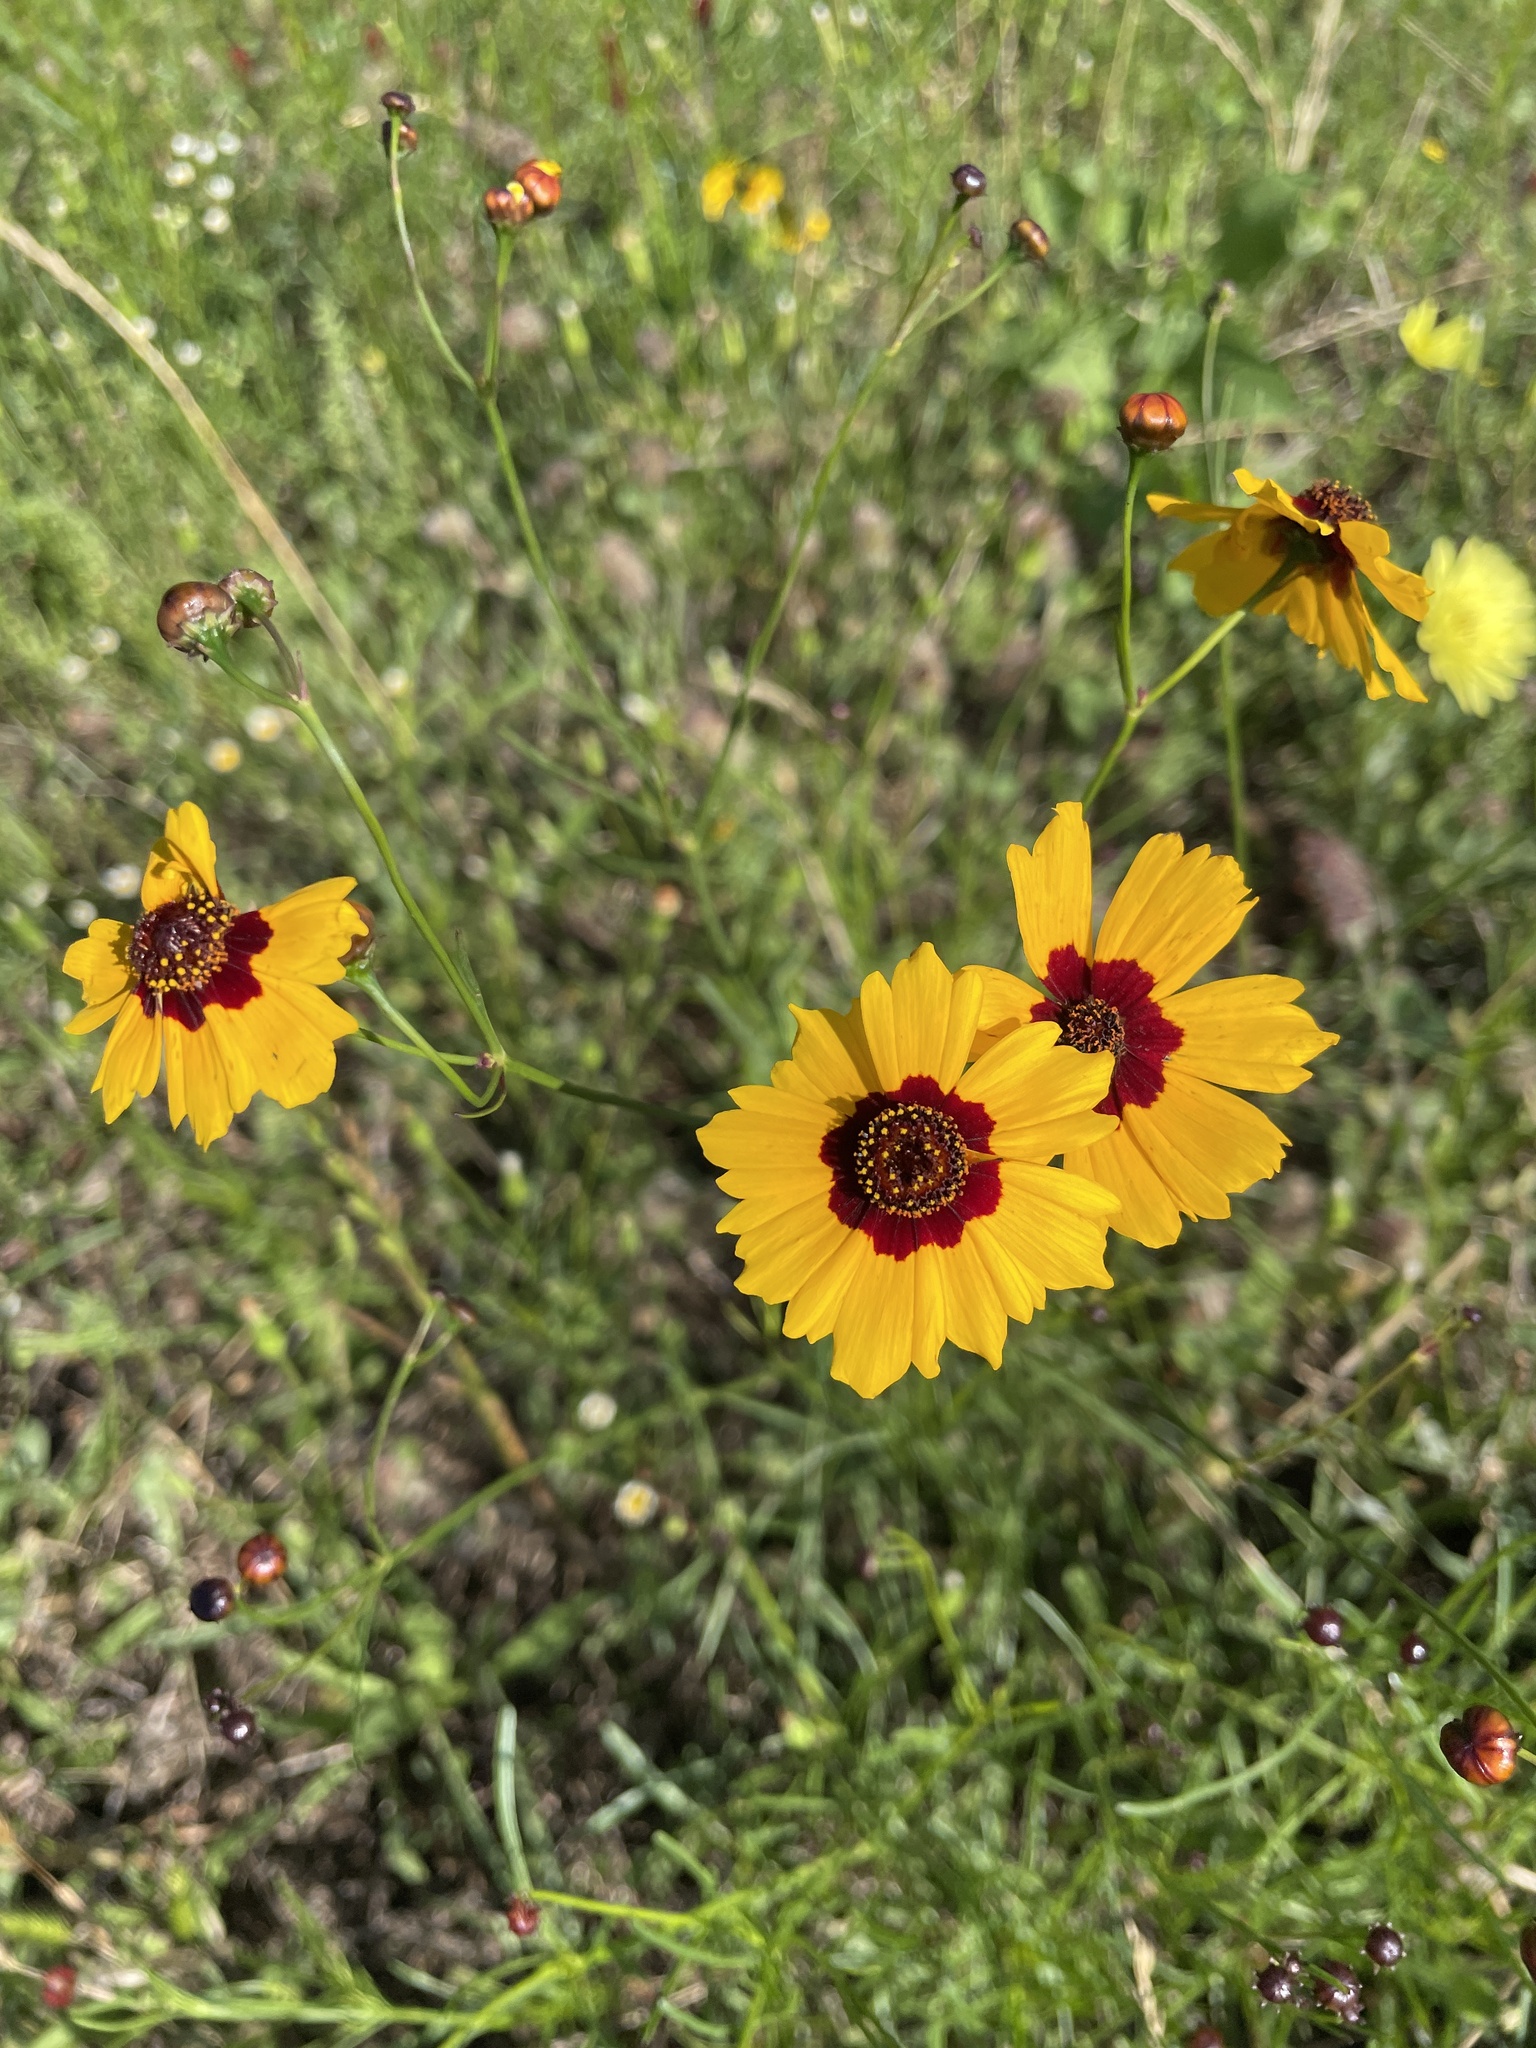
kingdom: Plantae
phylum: Tracheophyta
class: Magnoliopsida
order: Asterales
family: Asteraceae
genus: Coreopsis
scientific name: Coreopsis tinctoria
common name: Garden tickseed
